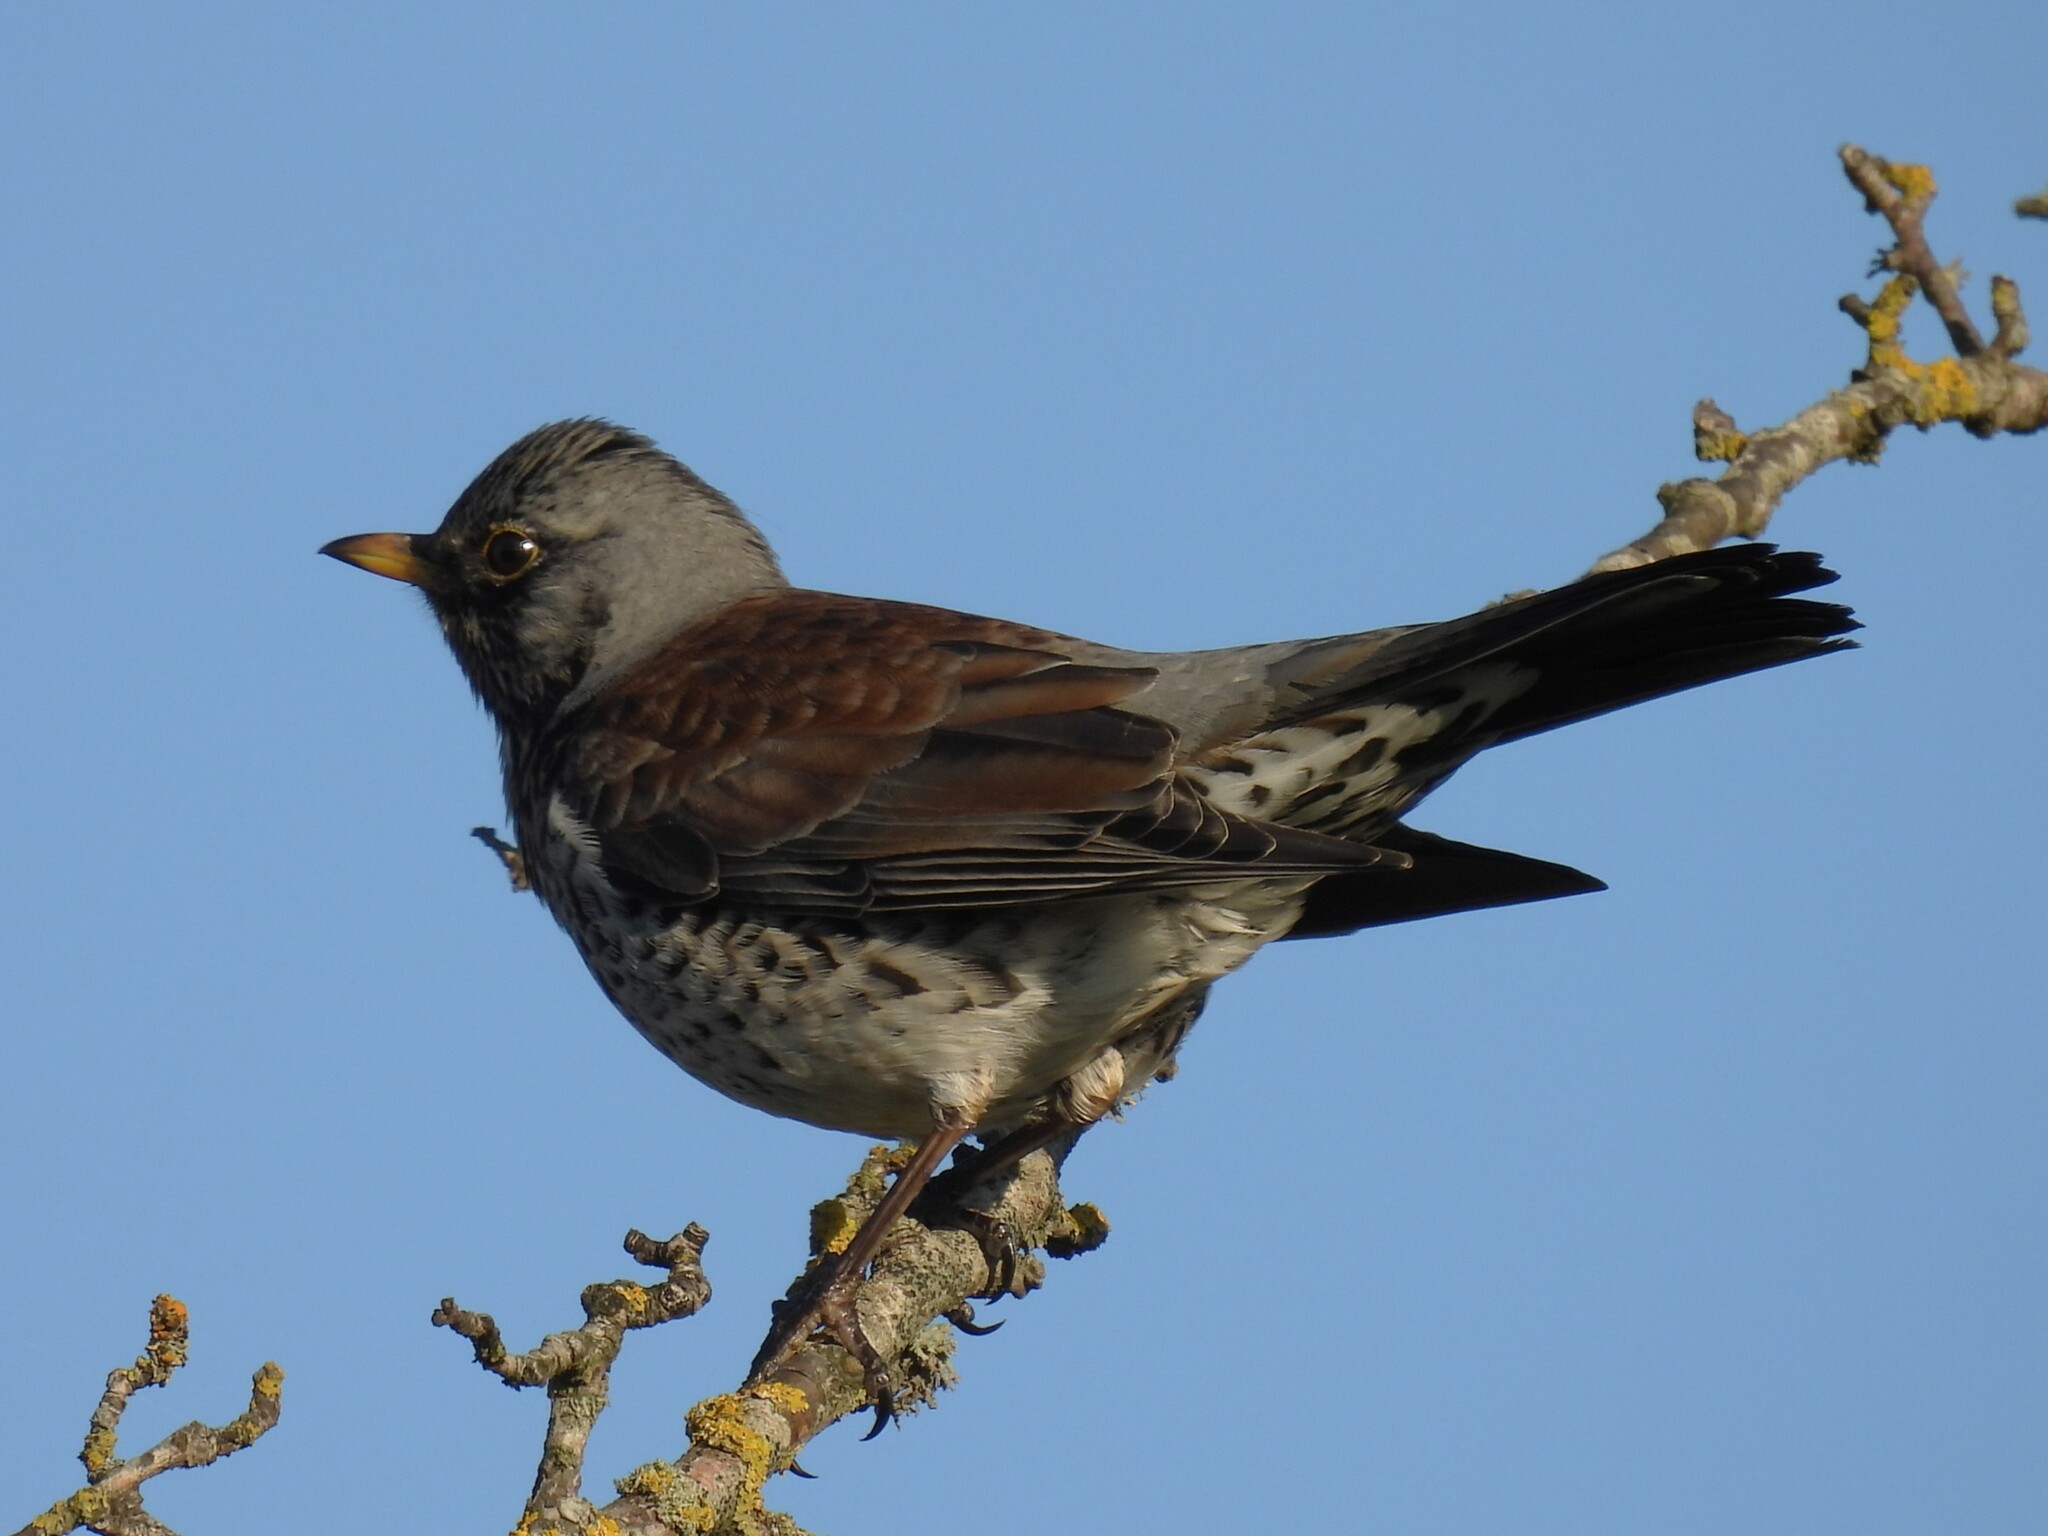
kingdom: Animalia
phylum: Chordata
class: Aves
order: Passeriformes
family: Turdidae
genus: Turdus
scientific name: Turdus pilaris
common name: Fieldfare
